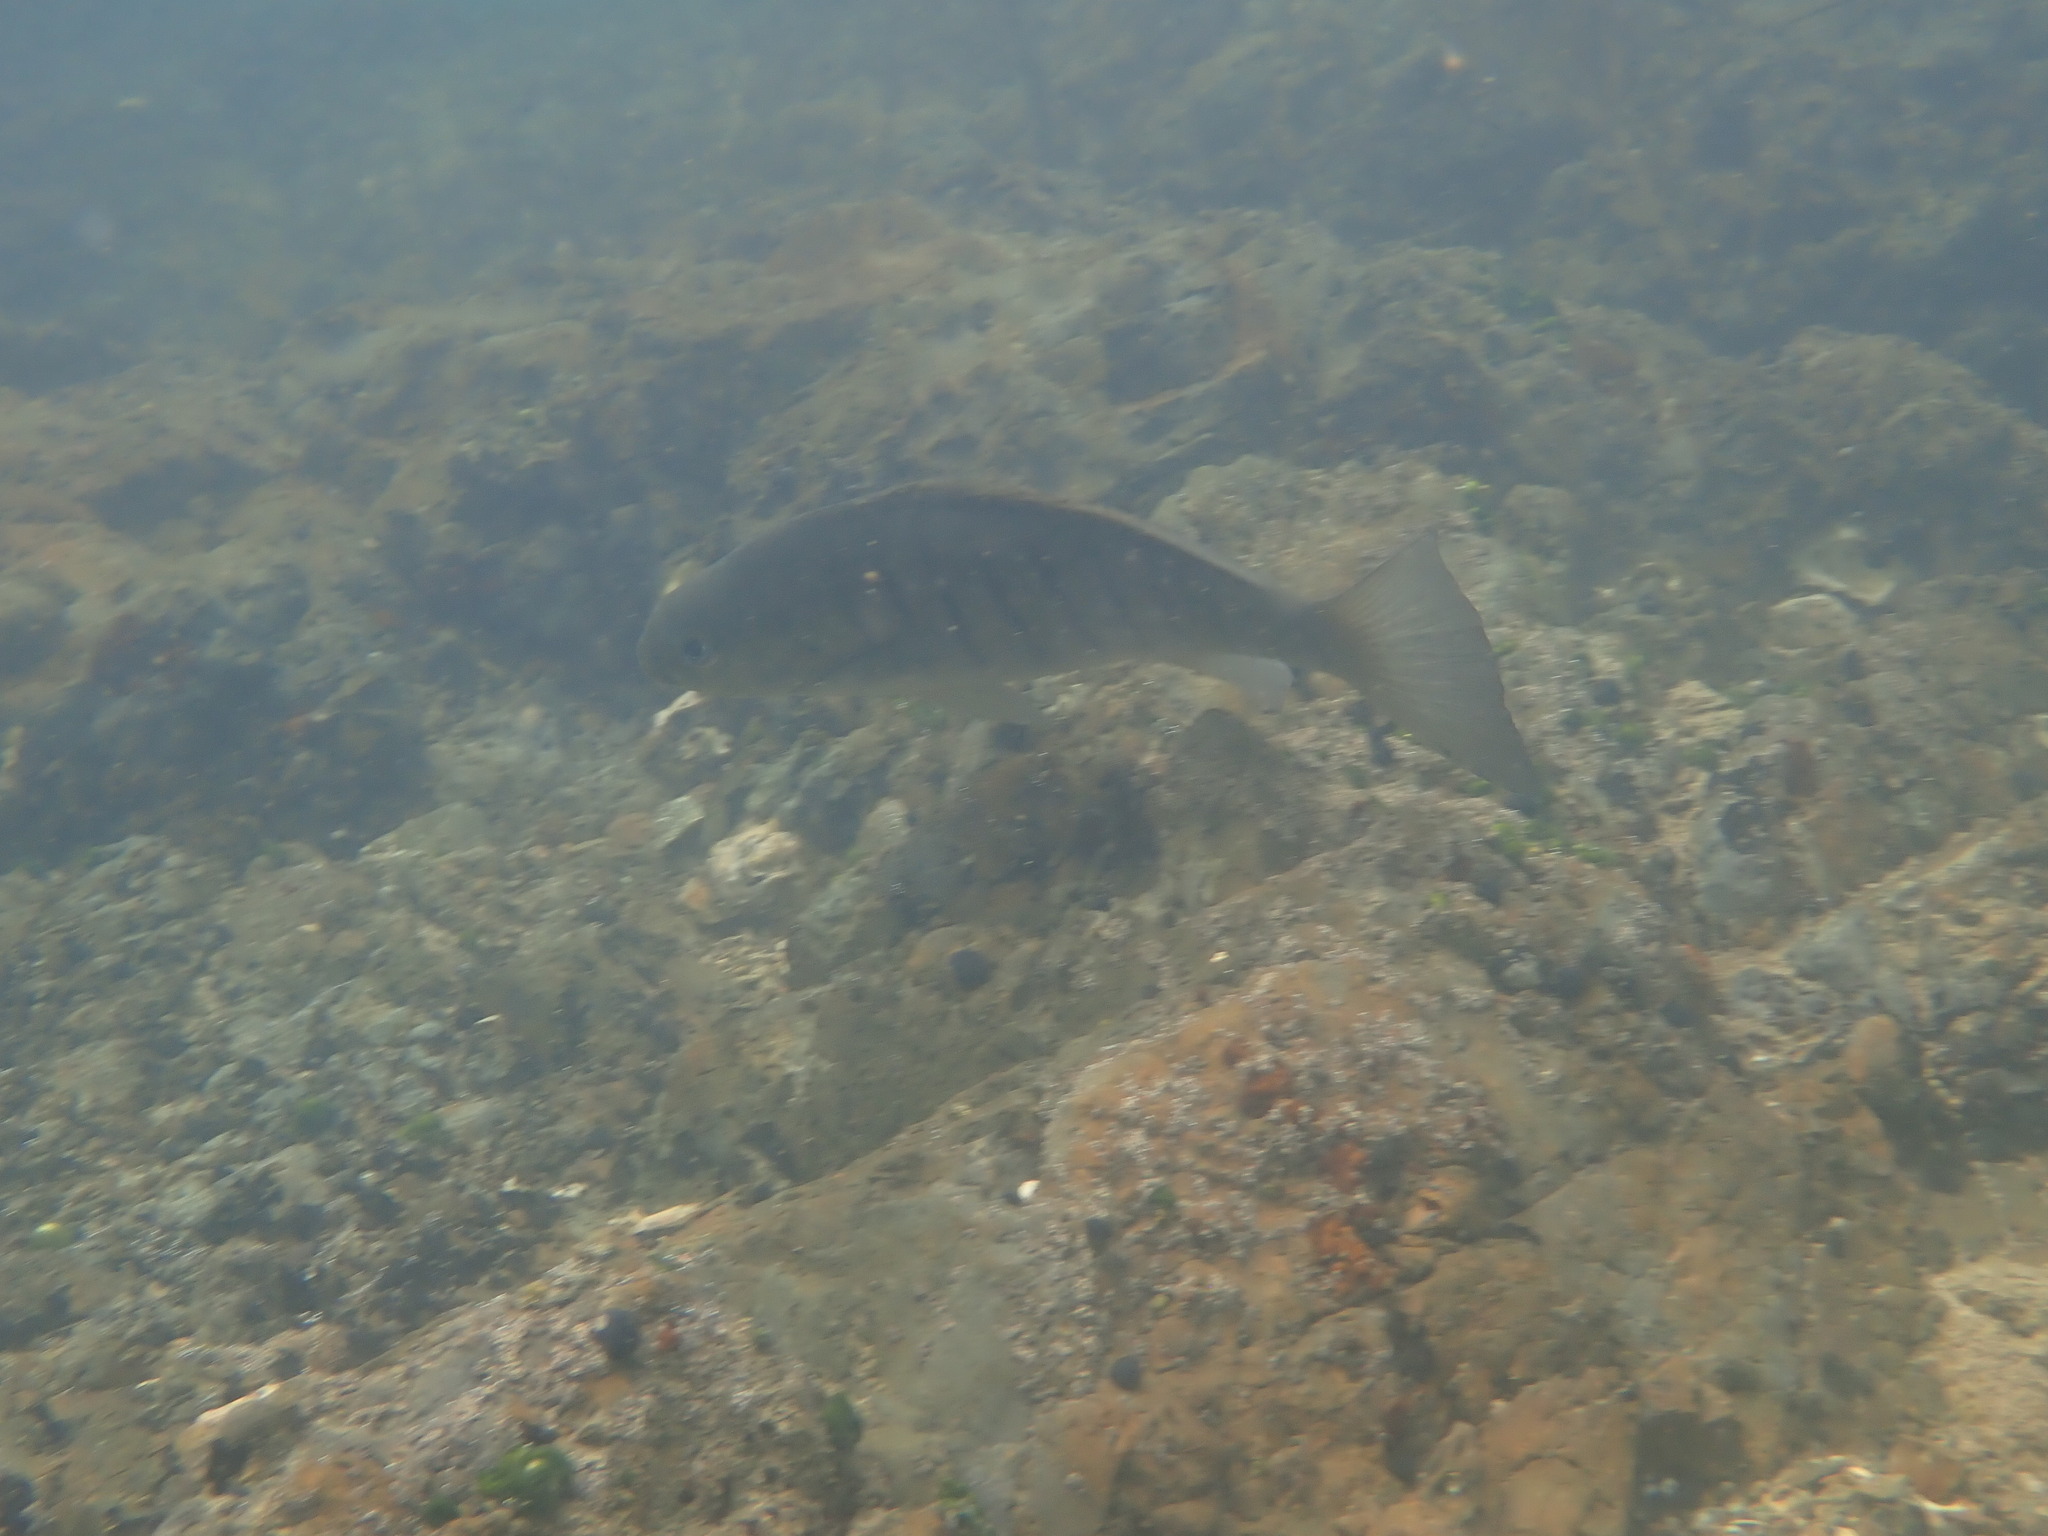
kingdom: Animalia
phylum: Chordata
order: Perciformes
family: Kyphosidae
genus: Girella
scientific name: Girella tricuspidata
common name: Parore
